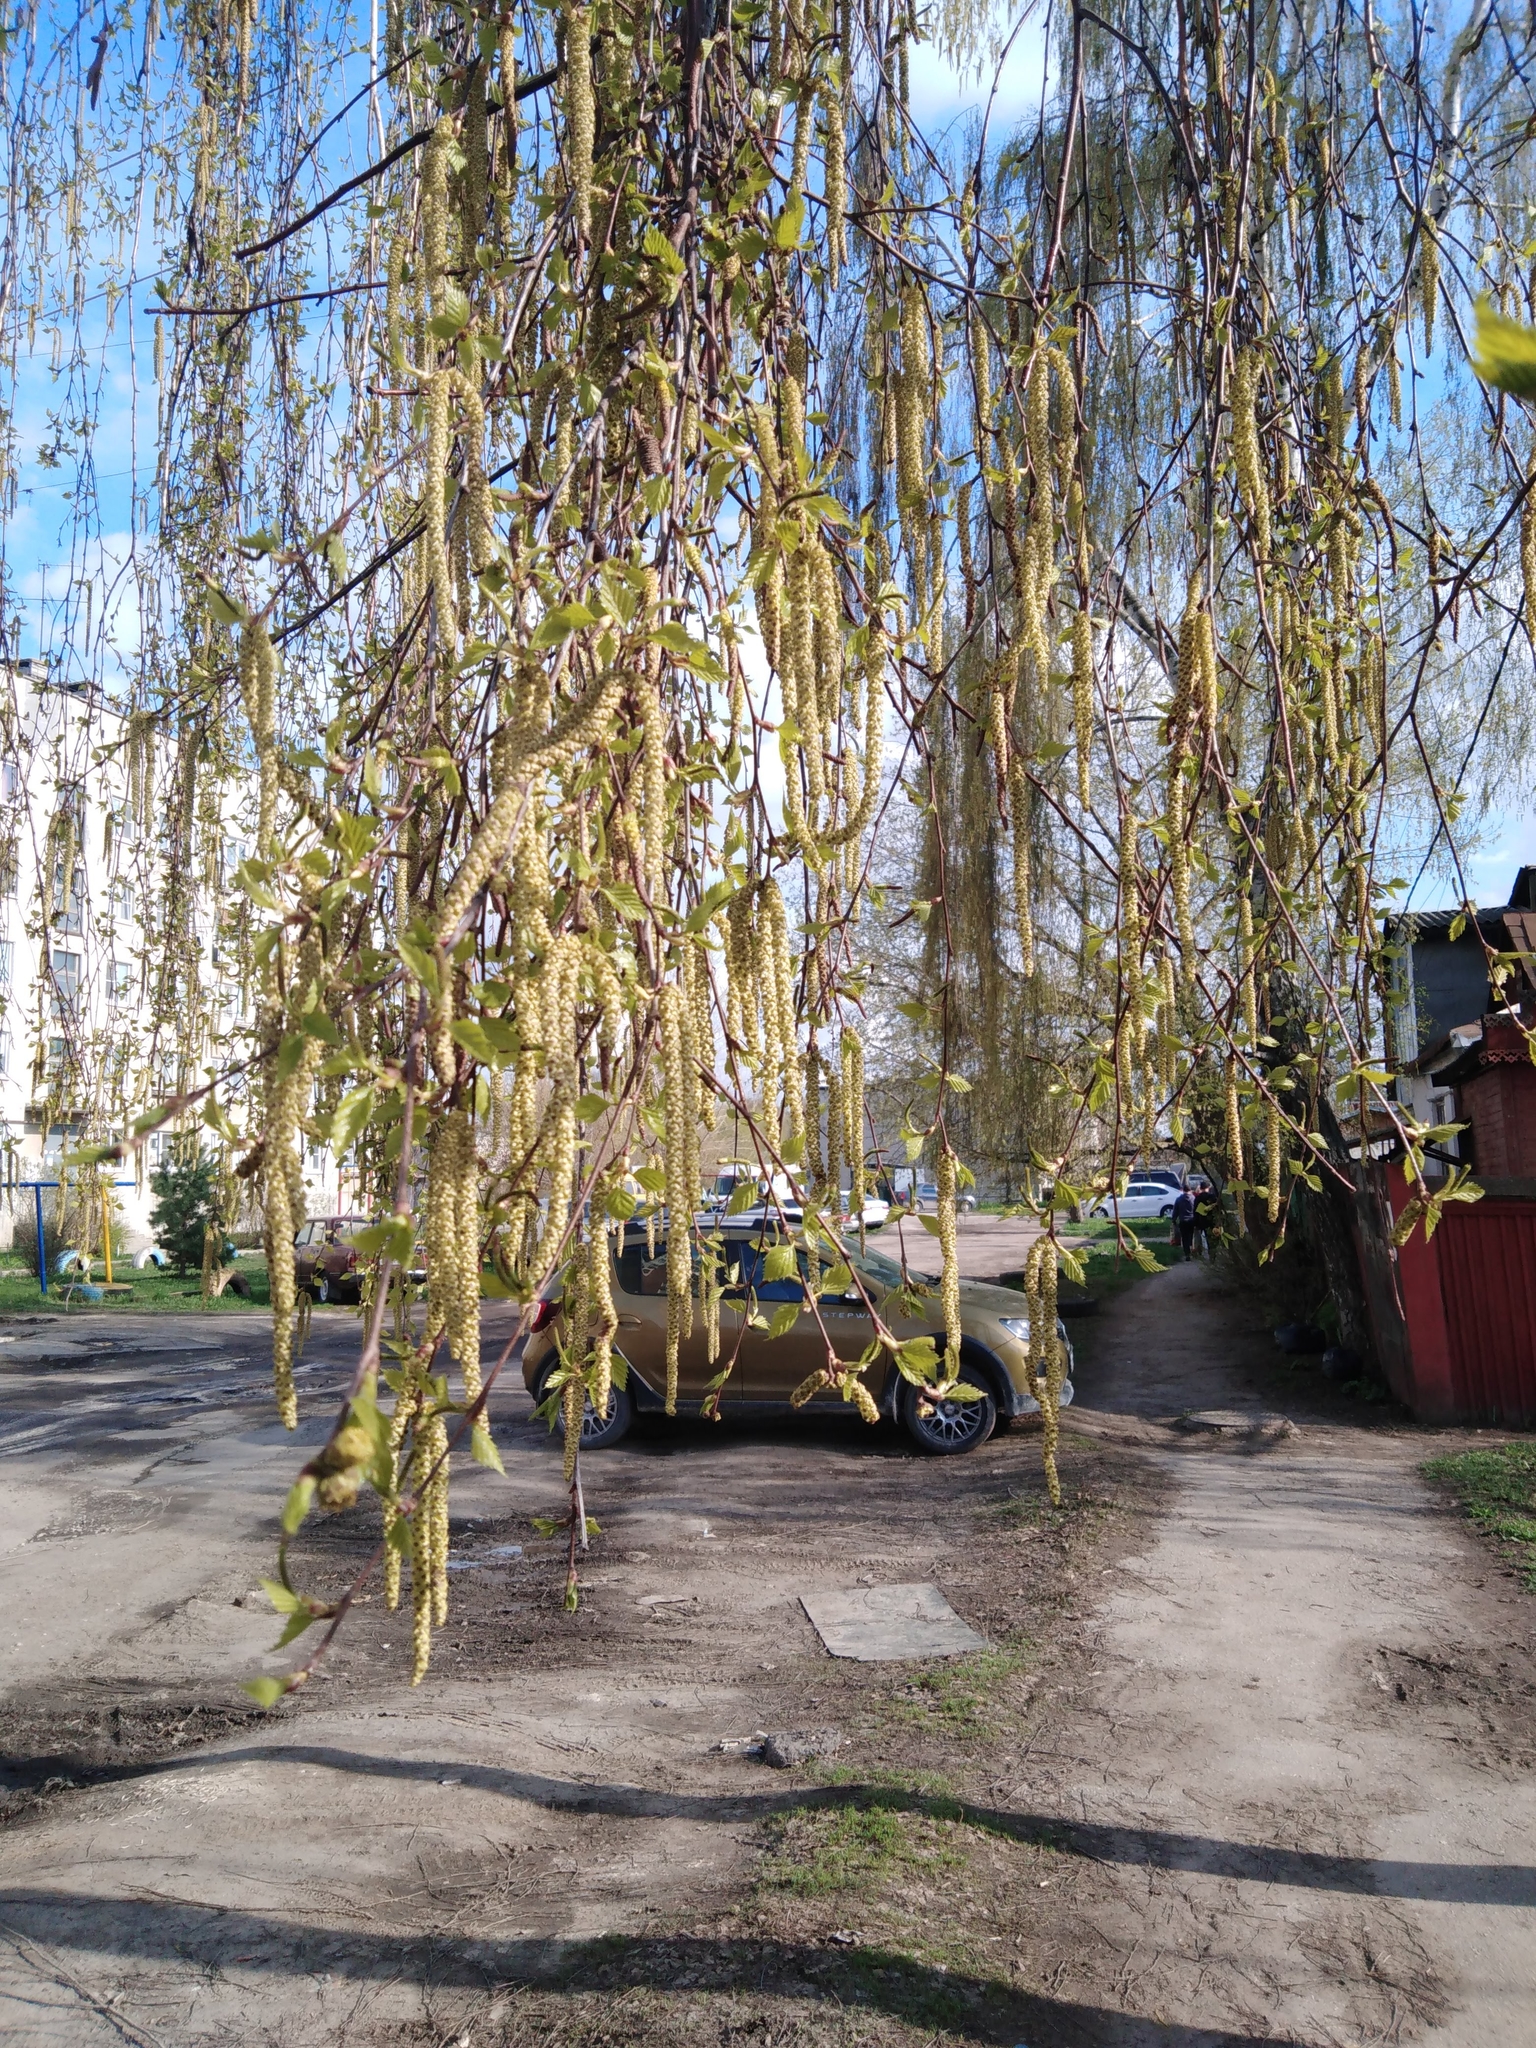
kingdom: Plantae
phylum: Tracheophyta
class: Magnoliopsida
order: Fagales
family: Betulaceae
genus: Betula
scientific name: Betula pendula
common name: Silver birch
